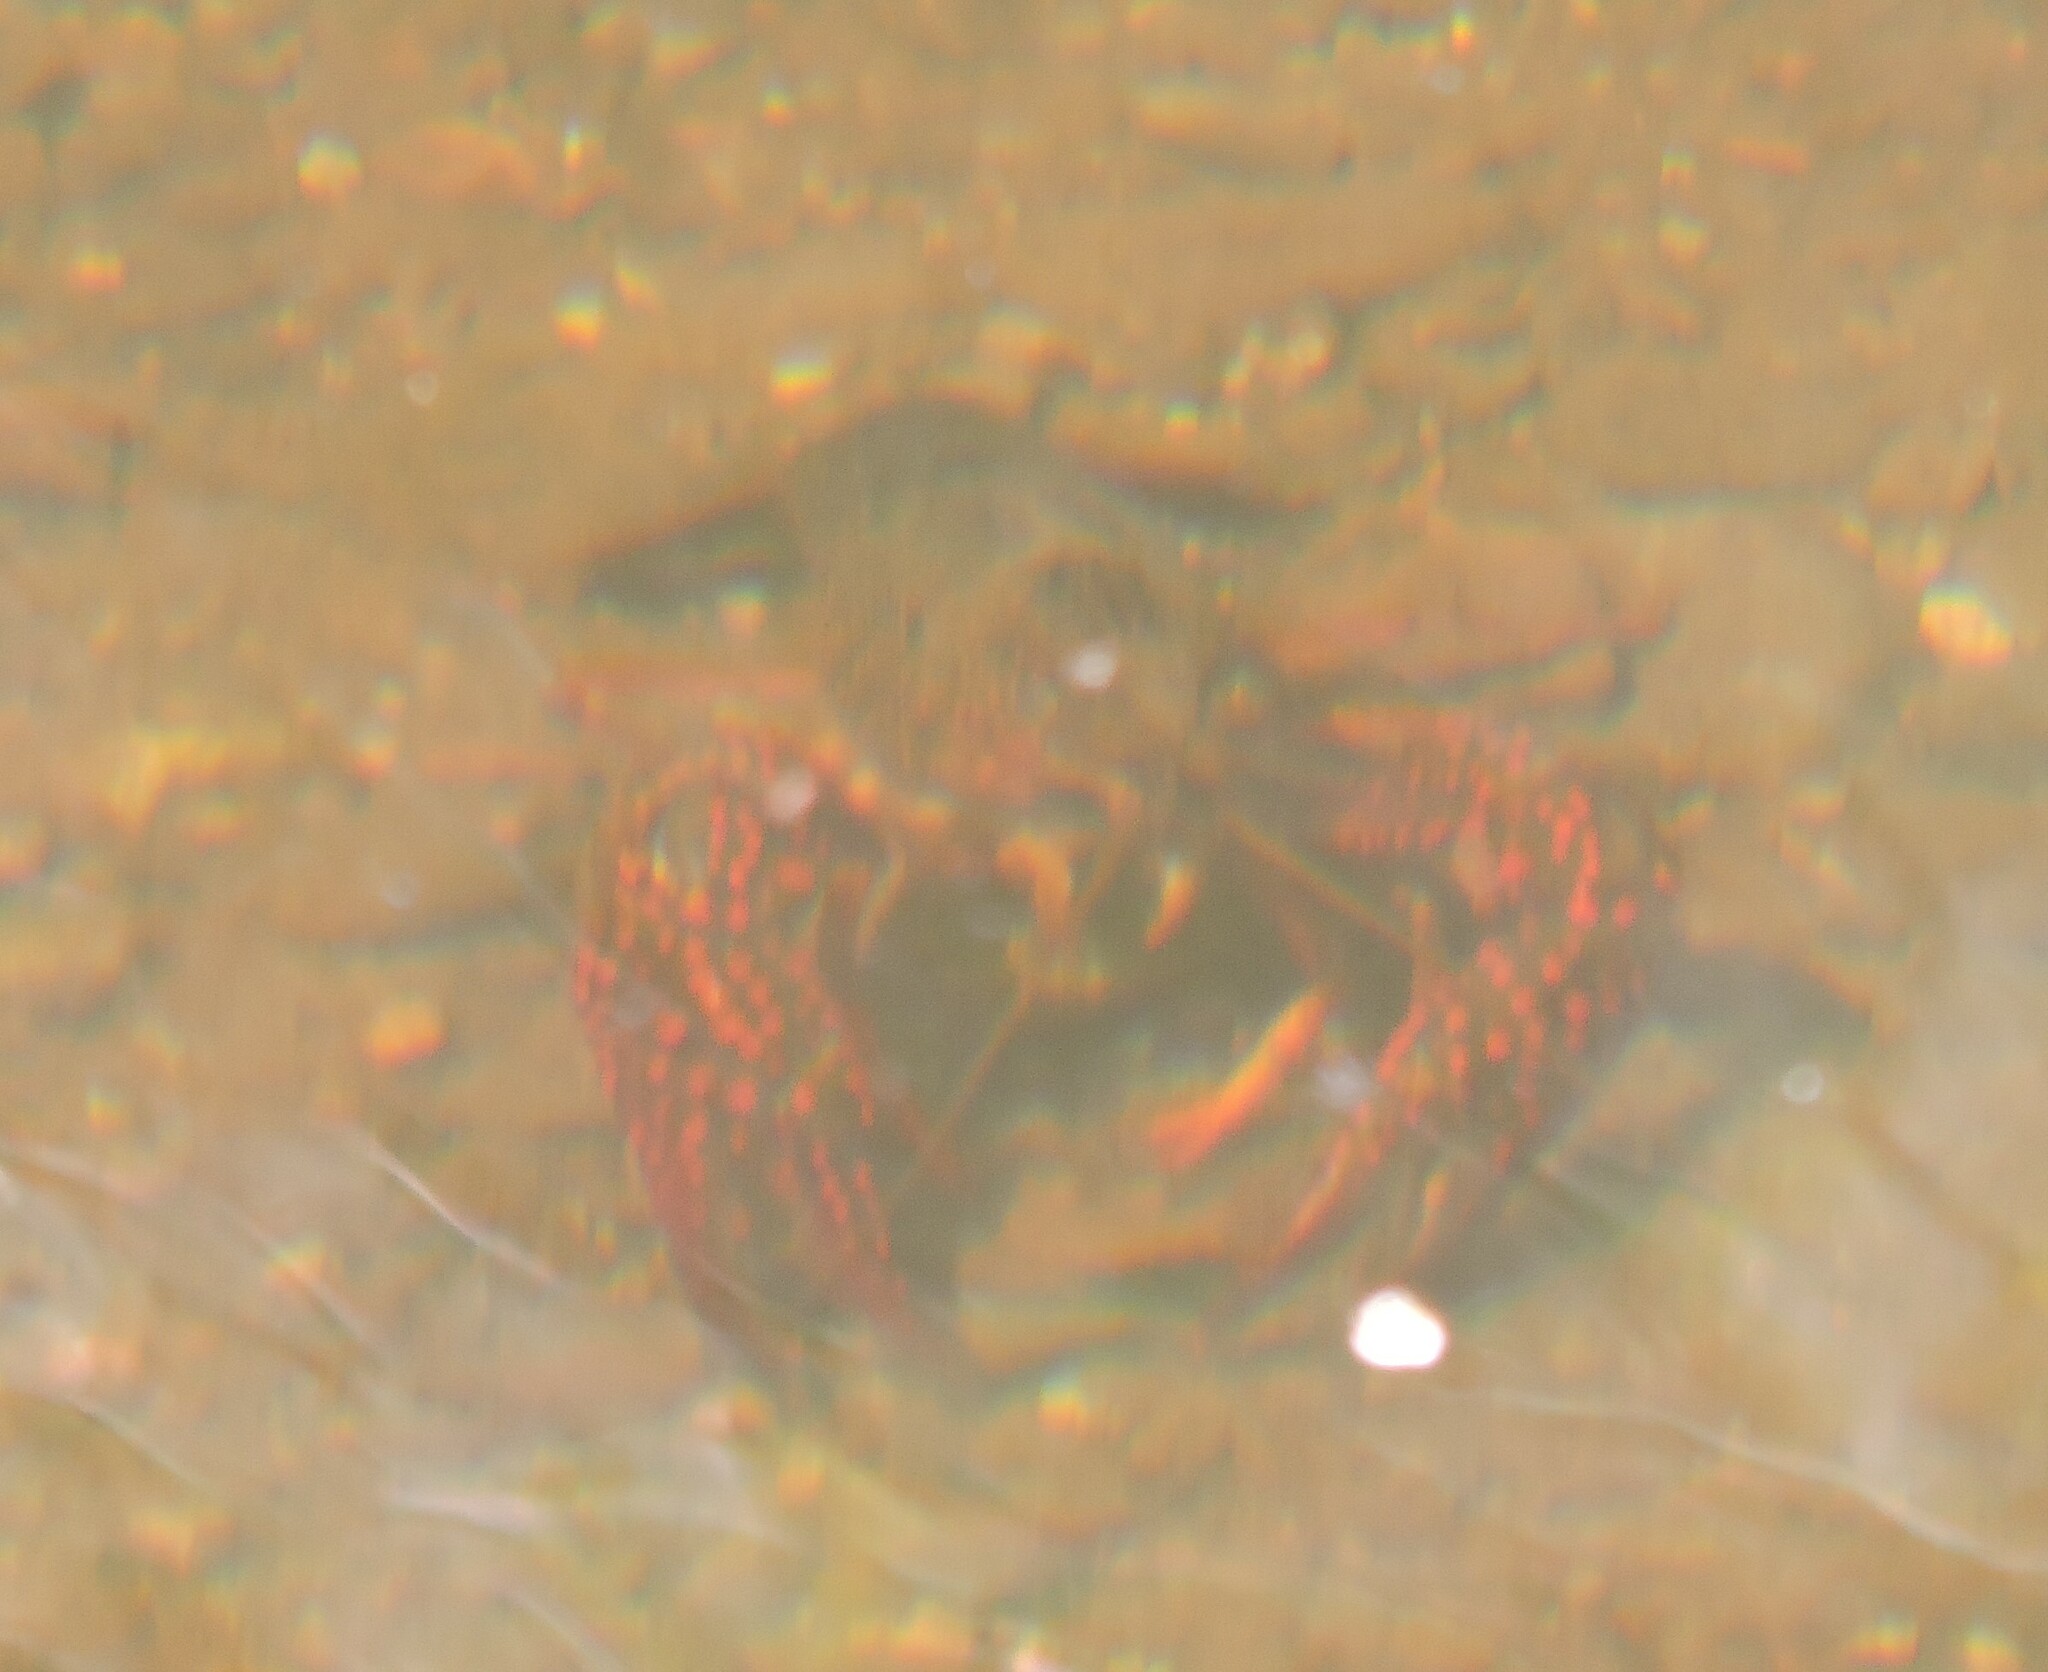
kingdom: Animalia
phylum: Arthropoda
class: Malacostraca
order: Decapoda
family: Cambaridae
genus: Procambarus
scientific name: Procambarus clarkii
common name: Red swamp crayfish
